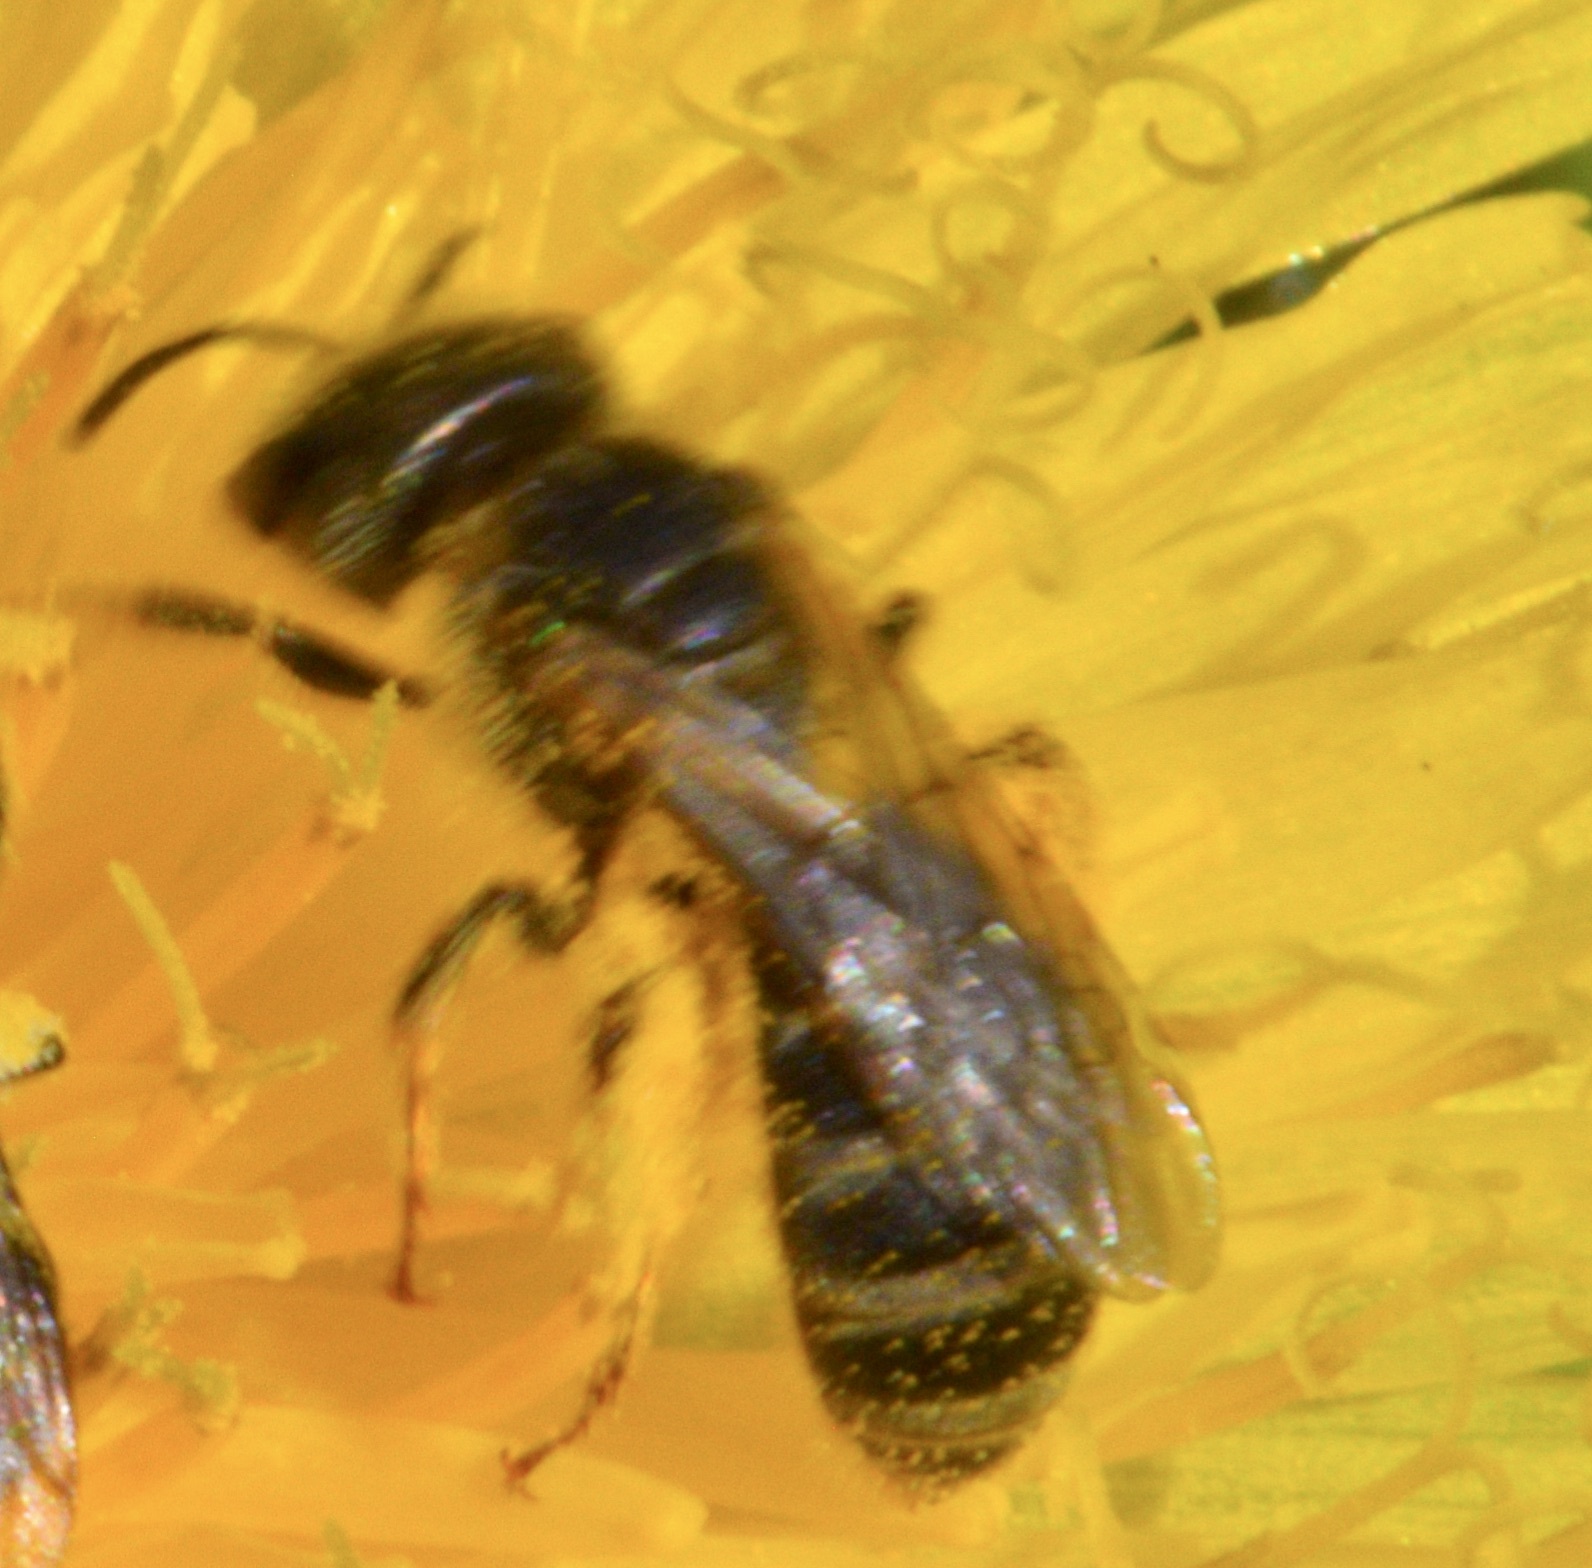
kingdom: Animalia
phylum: Arthropoda
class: Insecta
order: Hymenoptera
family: Halictidae
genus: Halictus
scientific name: Halictus ligatus
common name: Ligated furrow bee
